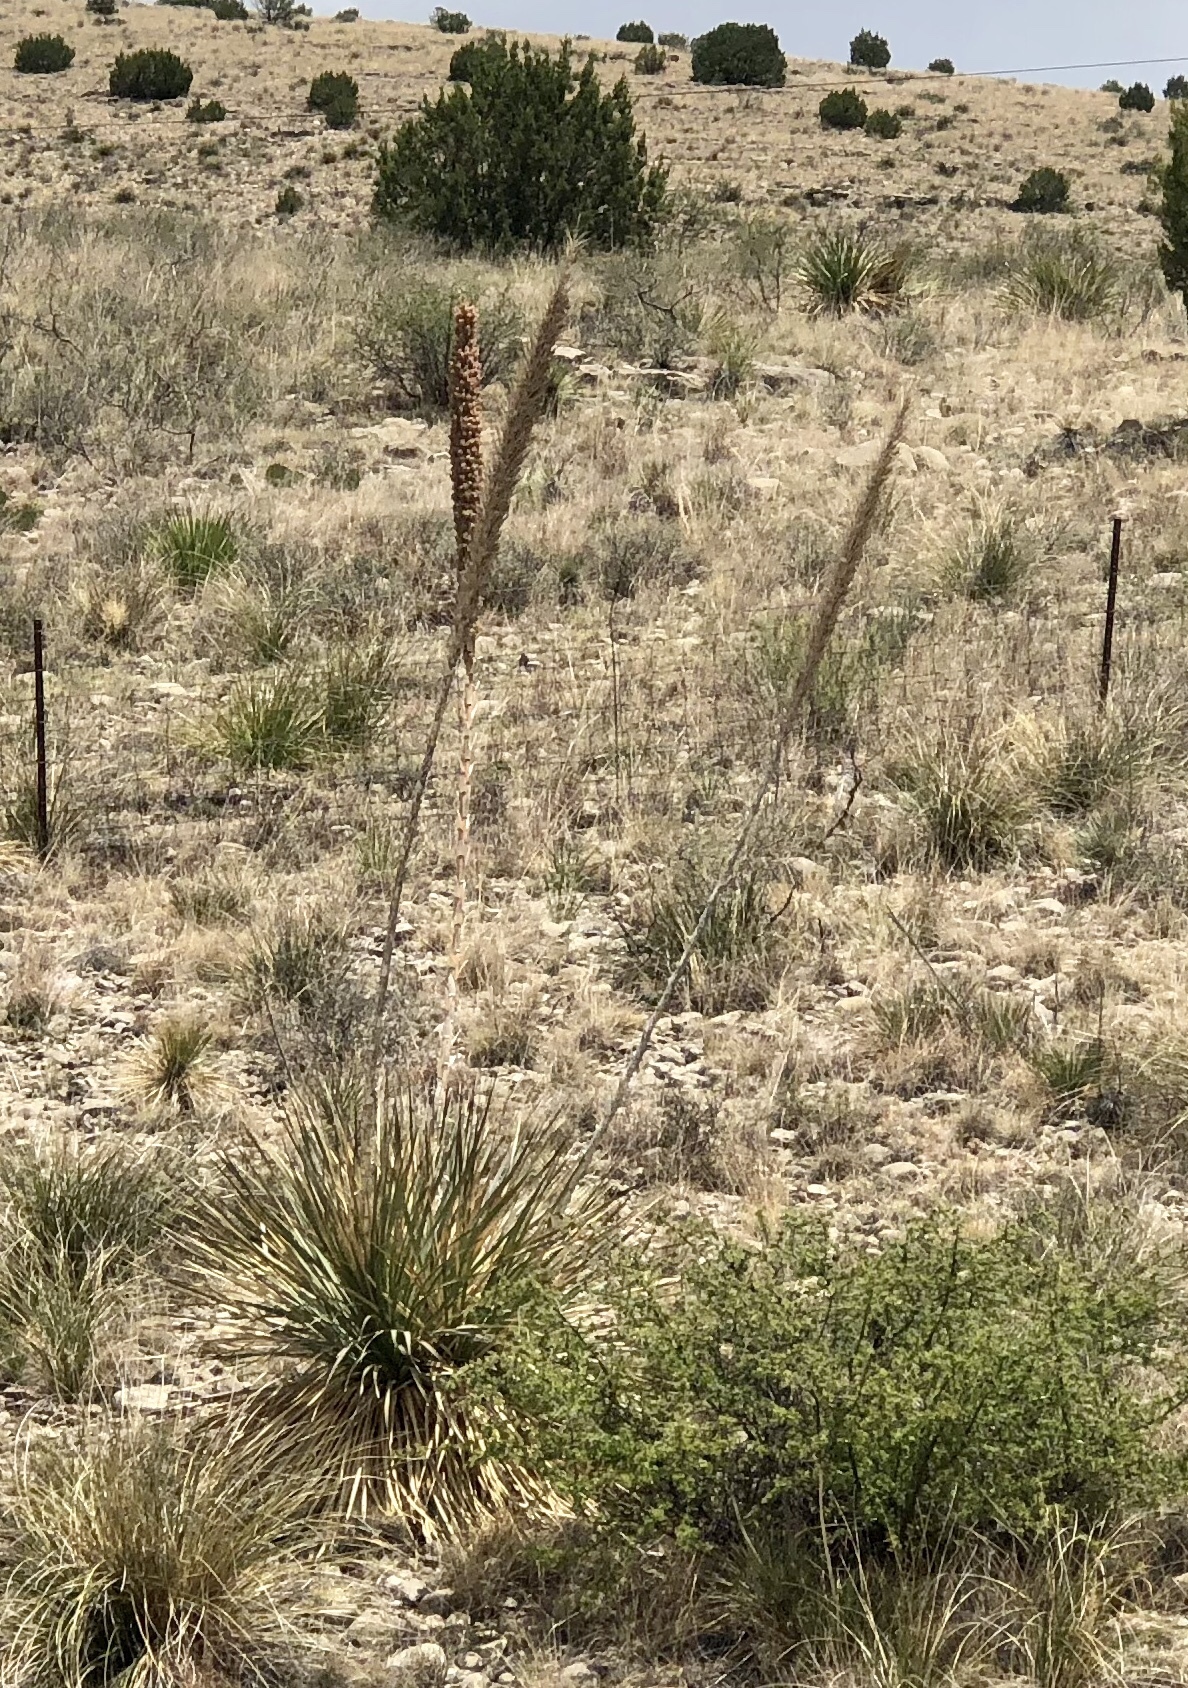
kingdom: Plantae
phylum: Tracheophyta
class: Liliopsida
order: Asparagales
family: Asparagaceae
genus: Dasylirion
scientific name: Dasylirion wheeleri
